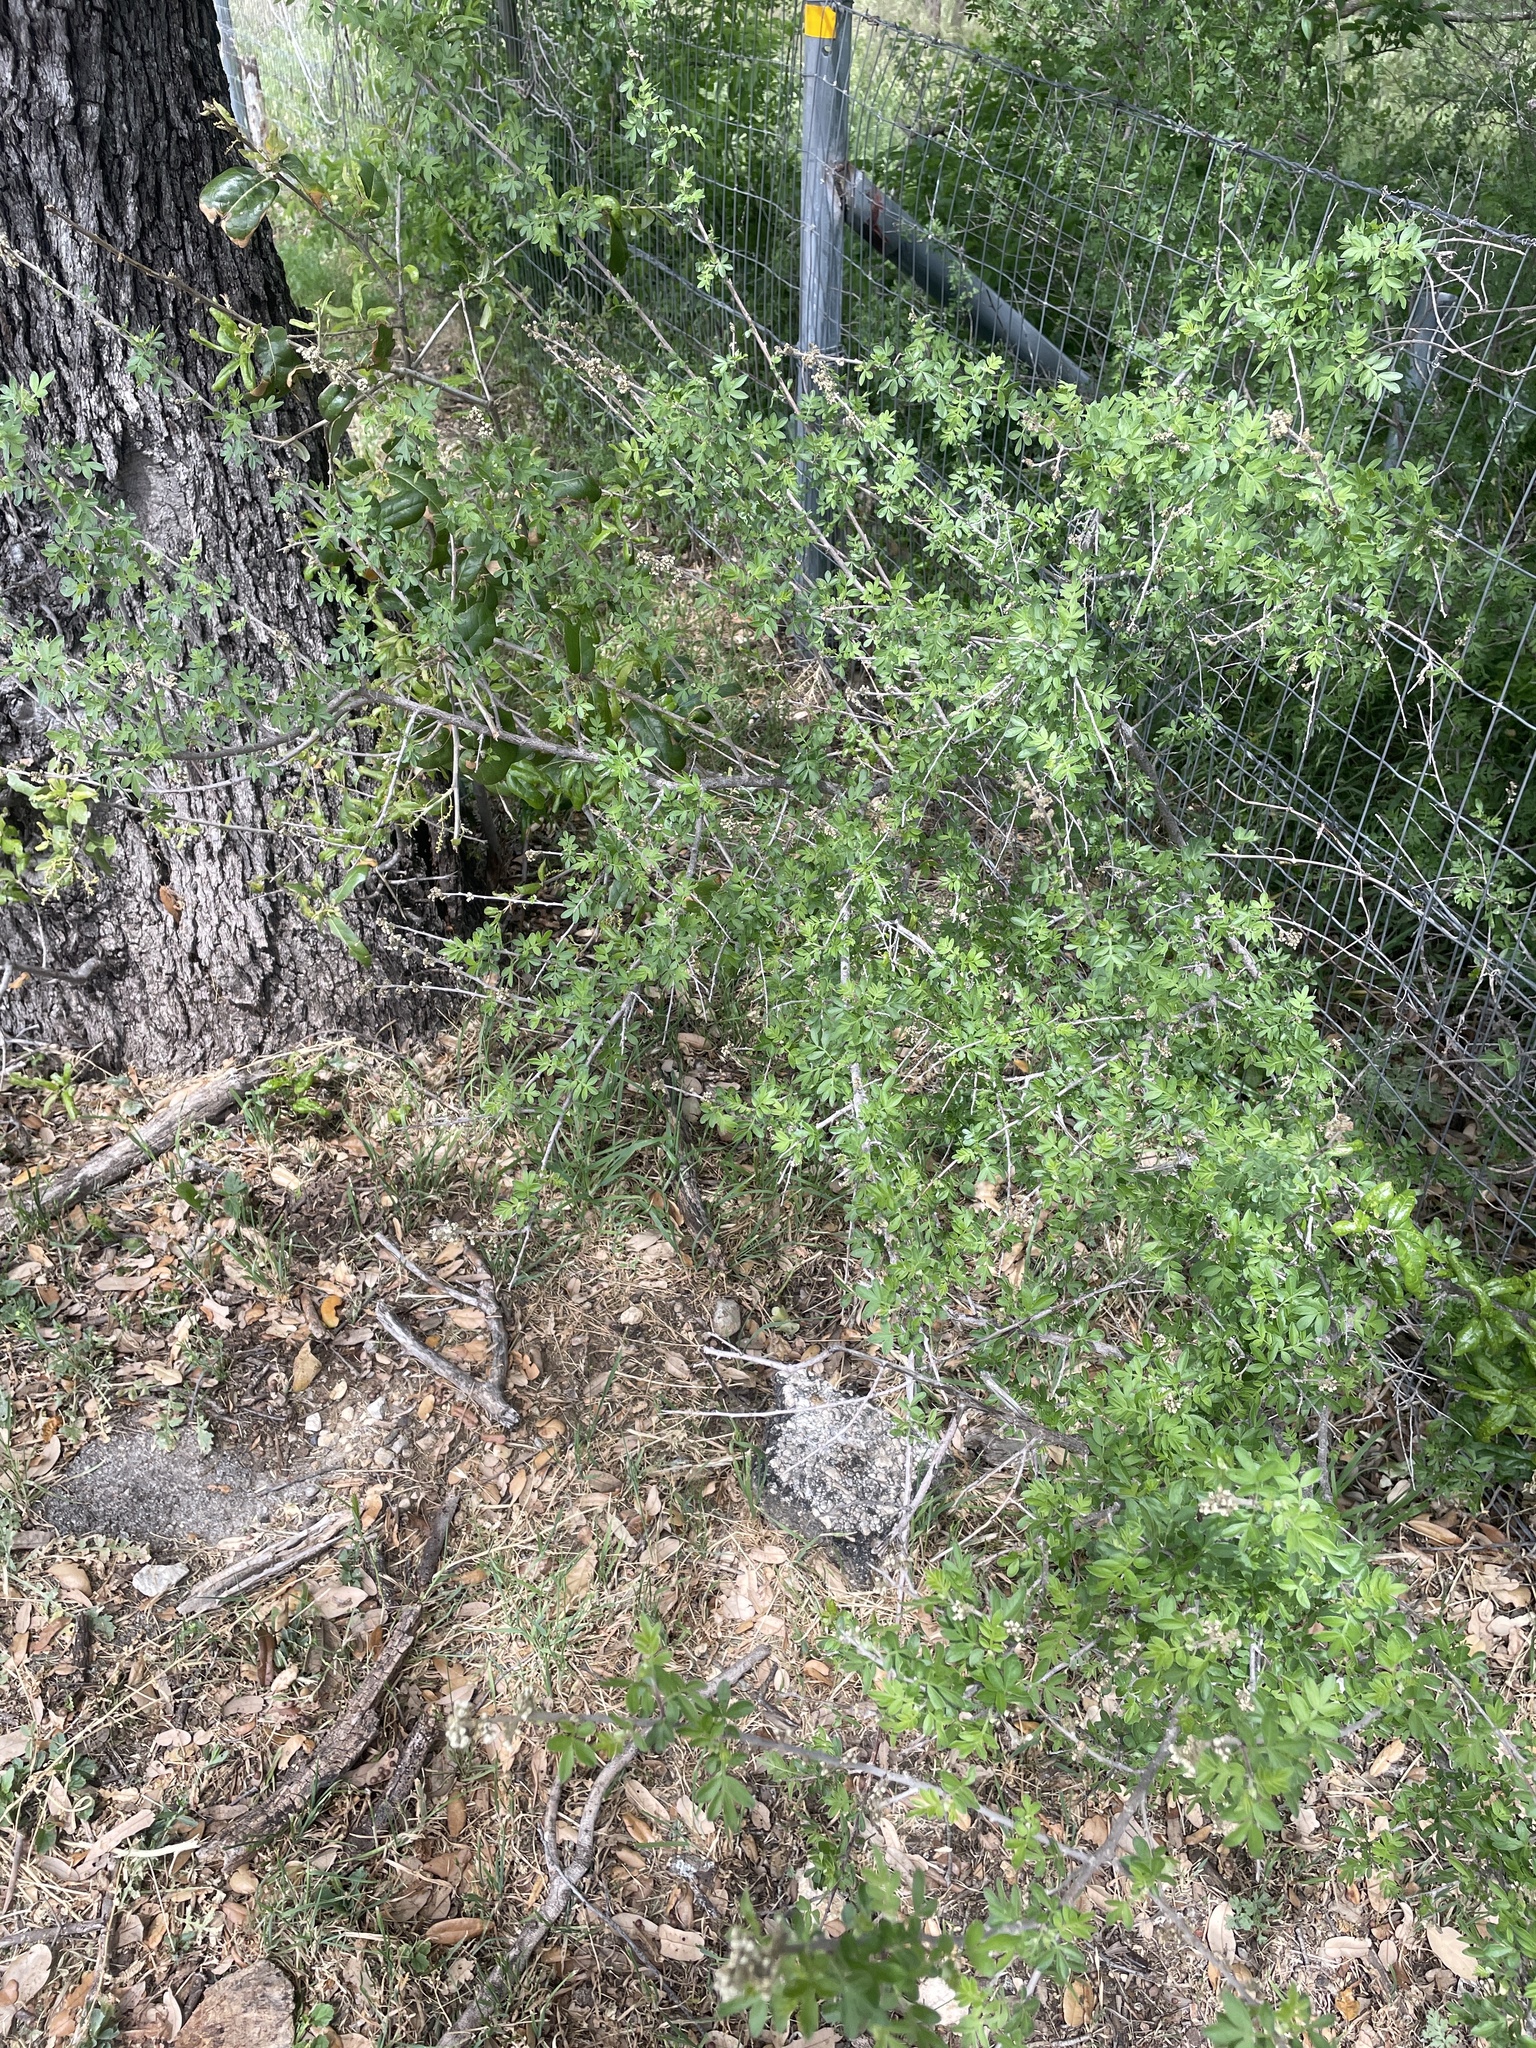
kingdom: Plantae
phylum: Tracheophyta
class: Magnoliopsida
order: Sapindales
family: Anacardiaceae
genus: Rhus
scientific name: Rhus microphylla
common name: Desert sumac
